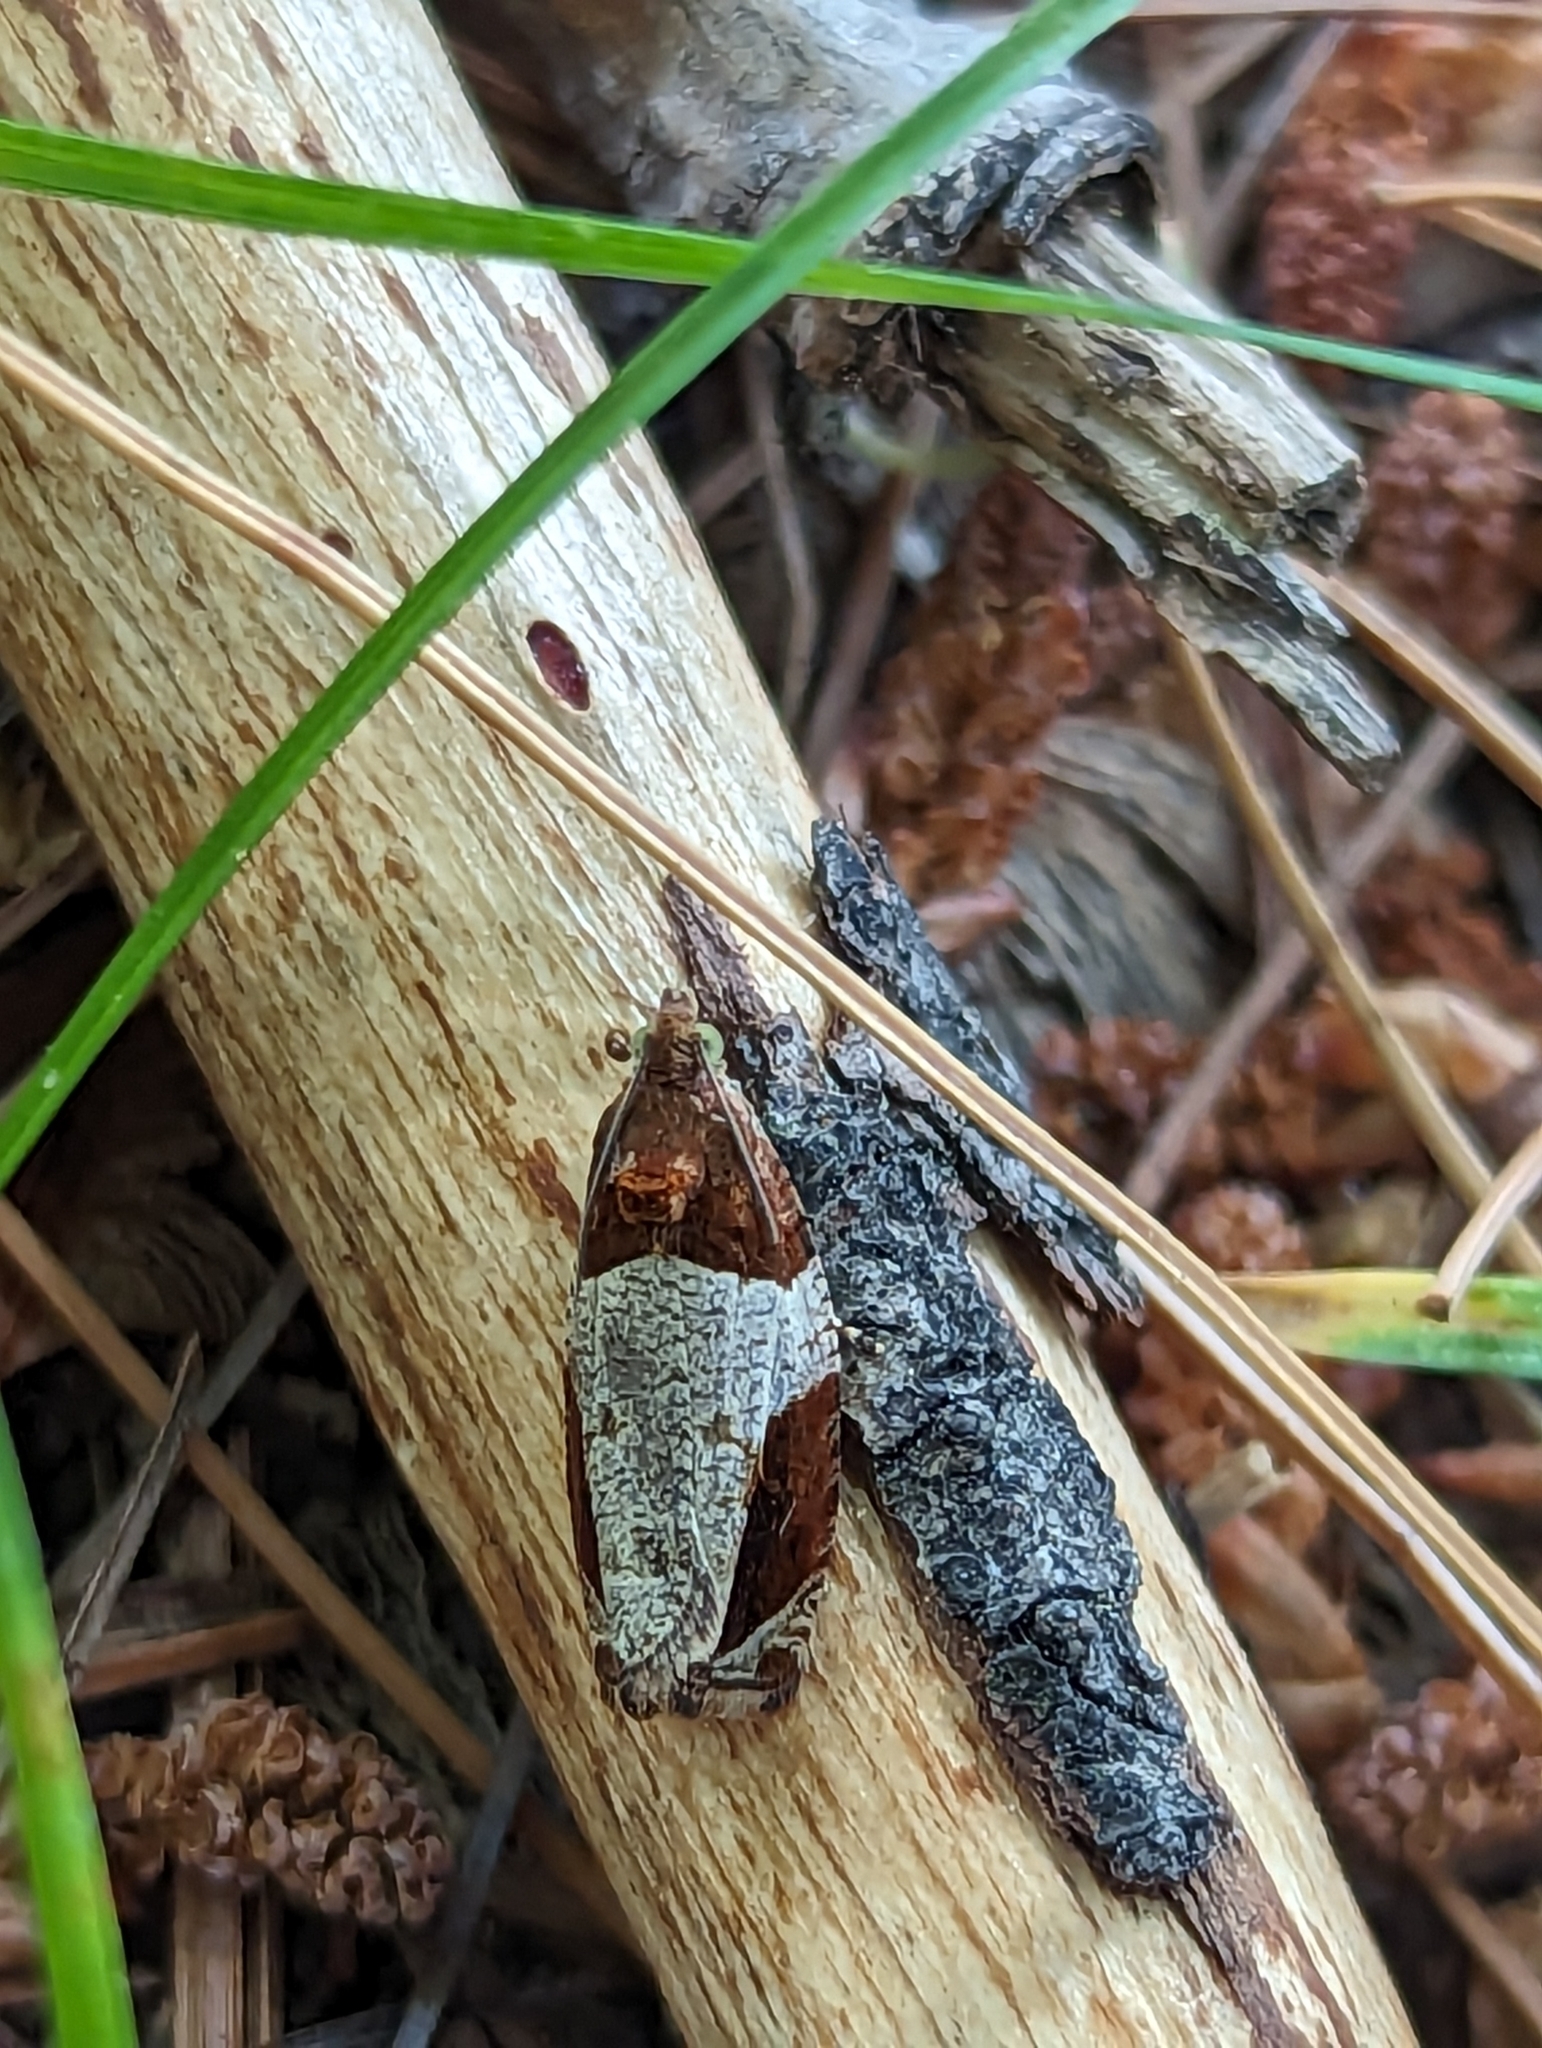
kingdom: Animalia
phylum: Arthropoda
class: Insecta
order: Lepidoptera
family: Tortricidae
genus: Olethreutes
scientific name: Olethreutes ferriferana
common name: Hydrangea leaftier moth
